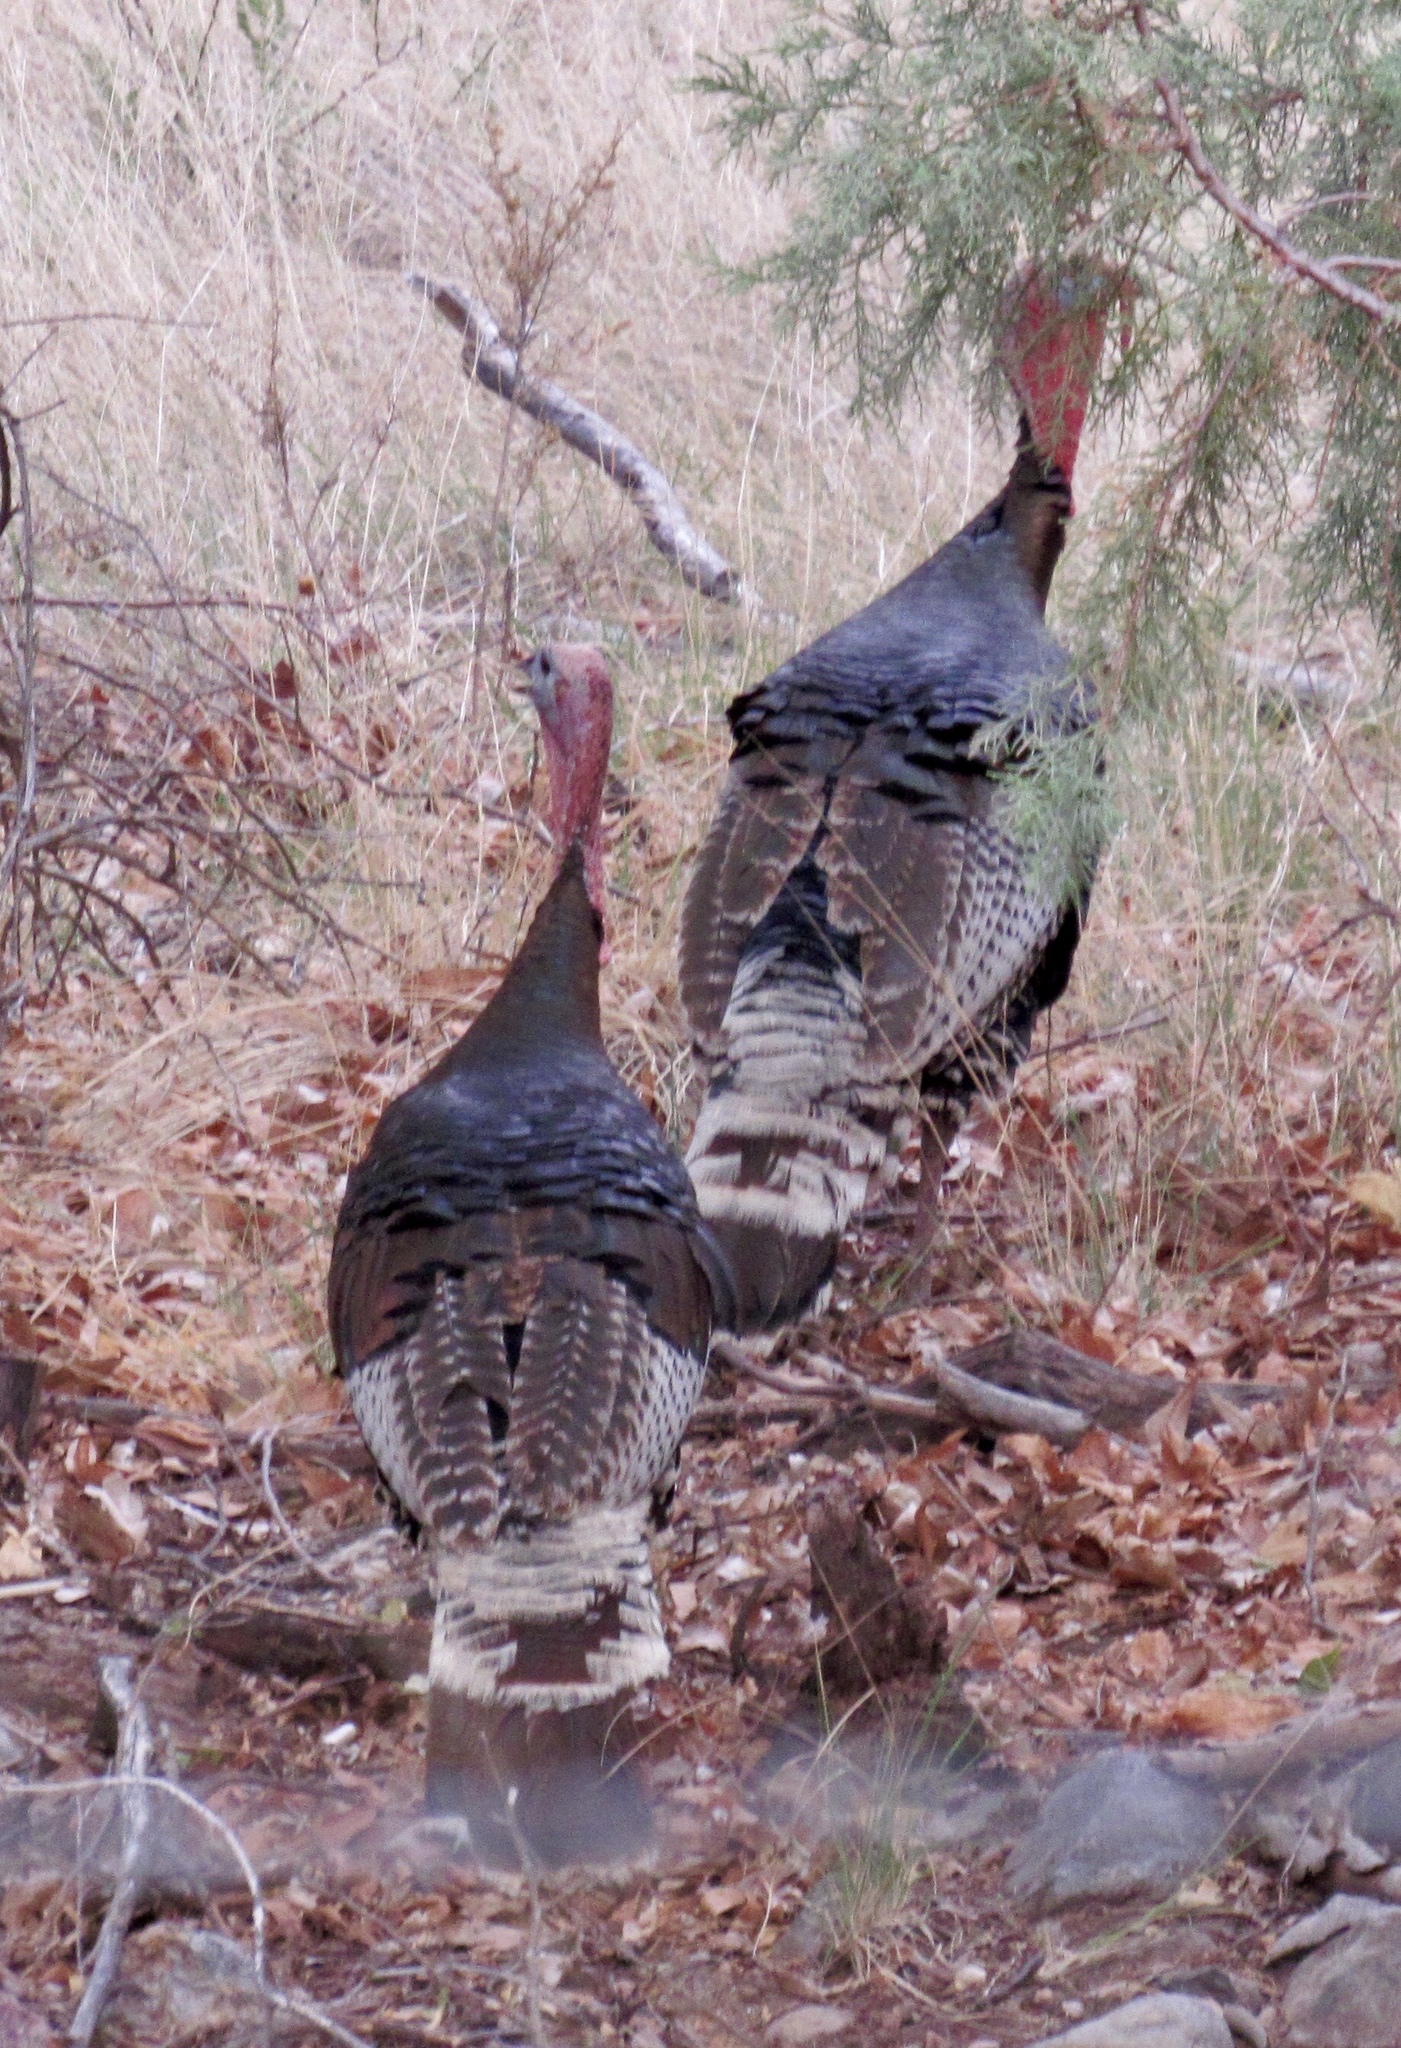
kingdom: Animalia
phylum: Chordata
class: Aves
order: Galliformes
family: Phasianidae
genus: Meleagris
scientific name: Meleagris gallopavo
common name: Wild turkey
